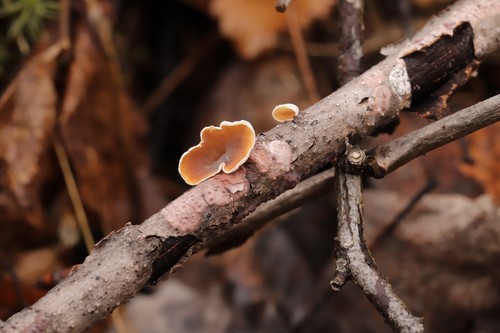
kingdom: Fungi
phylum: Basidiomycota
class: Agaricomycetes
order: Agaricales
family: Schizophyllaceae
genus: Schizophyllum
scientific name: Schizophyllum amplum
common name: Poplar bells
